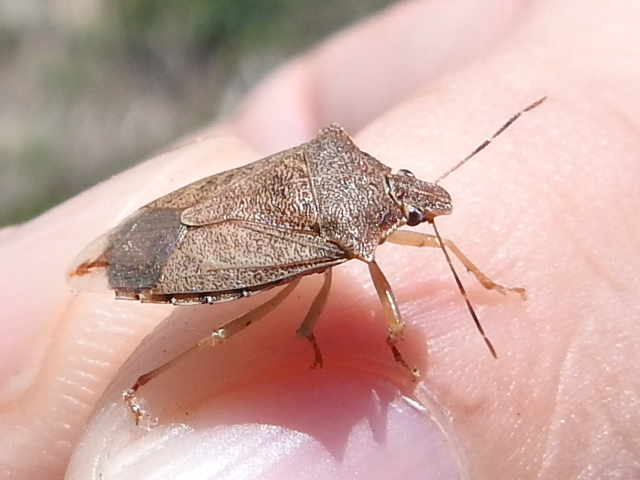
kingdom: Animalia
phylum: Arthropoda
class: Insecta
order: Hemiptera
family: Pentatomidae
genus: Podisus
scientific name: Podisus maculiventris
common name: Spined soldier bug
